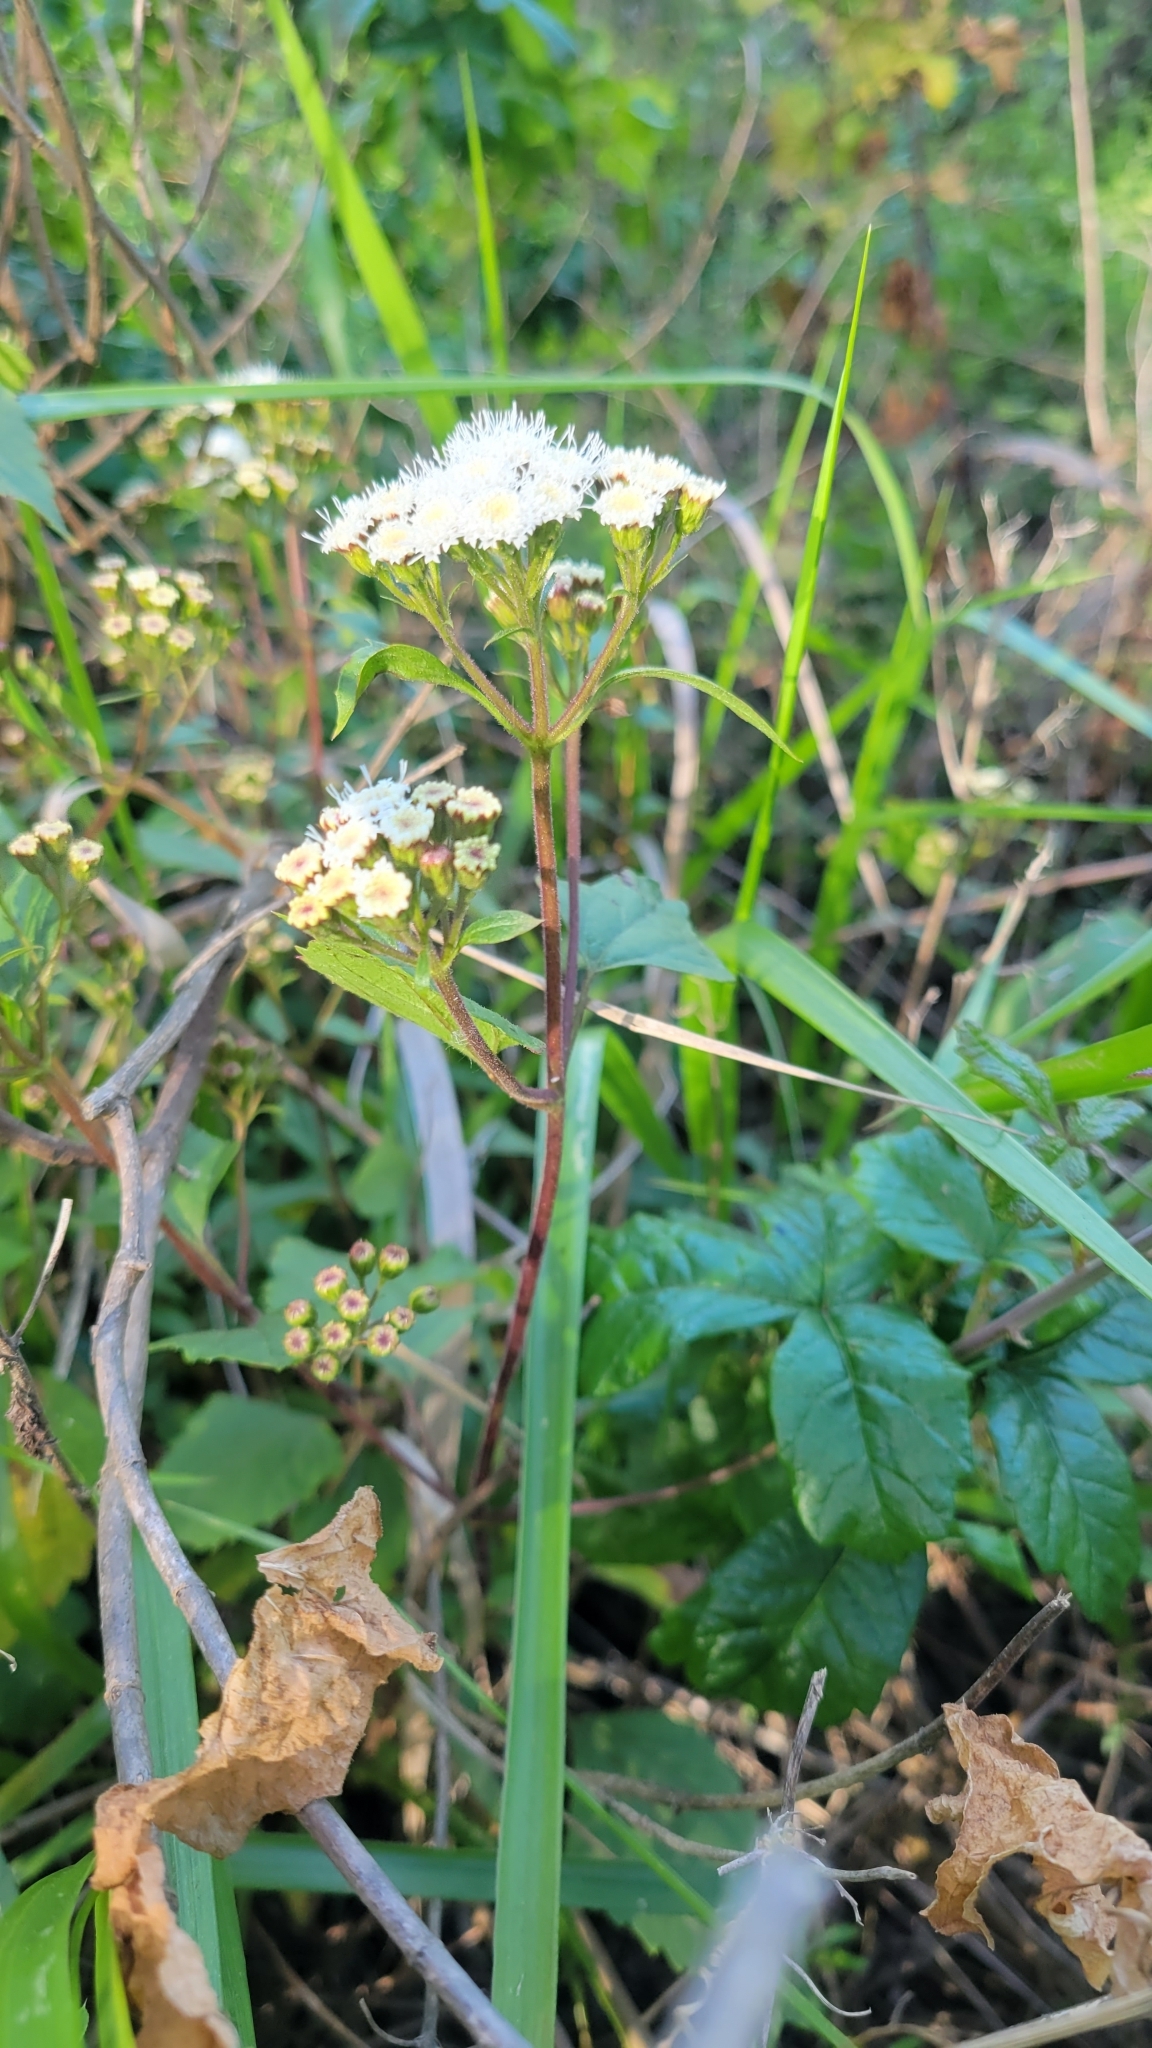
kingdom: Plantae
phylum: Tracheophyta
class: Magnoliopsida
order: Asterales
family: Asteraceae
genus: Ageratina
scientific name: Ageratina adenophora
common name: Sticky snakeroot
